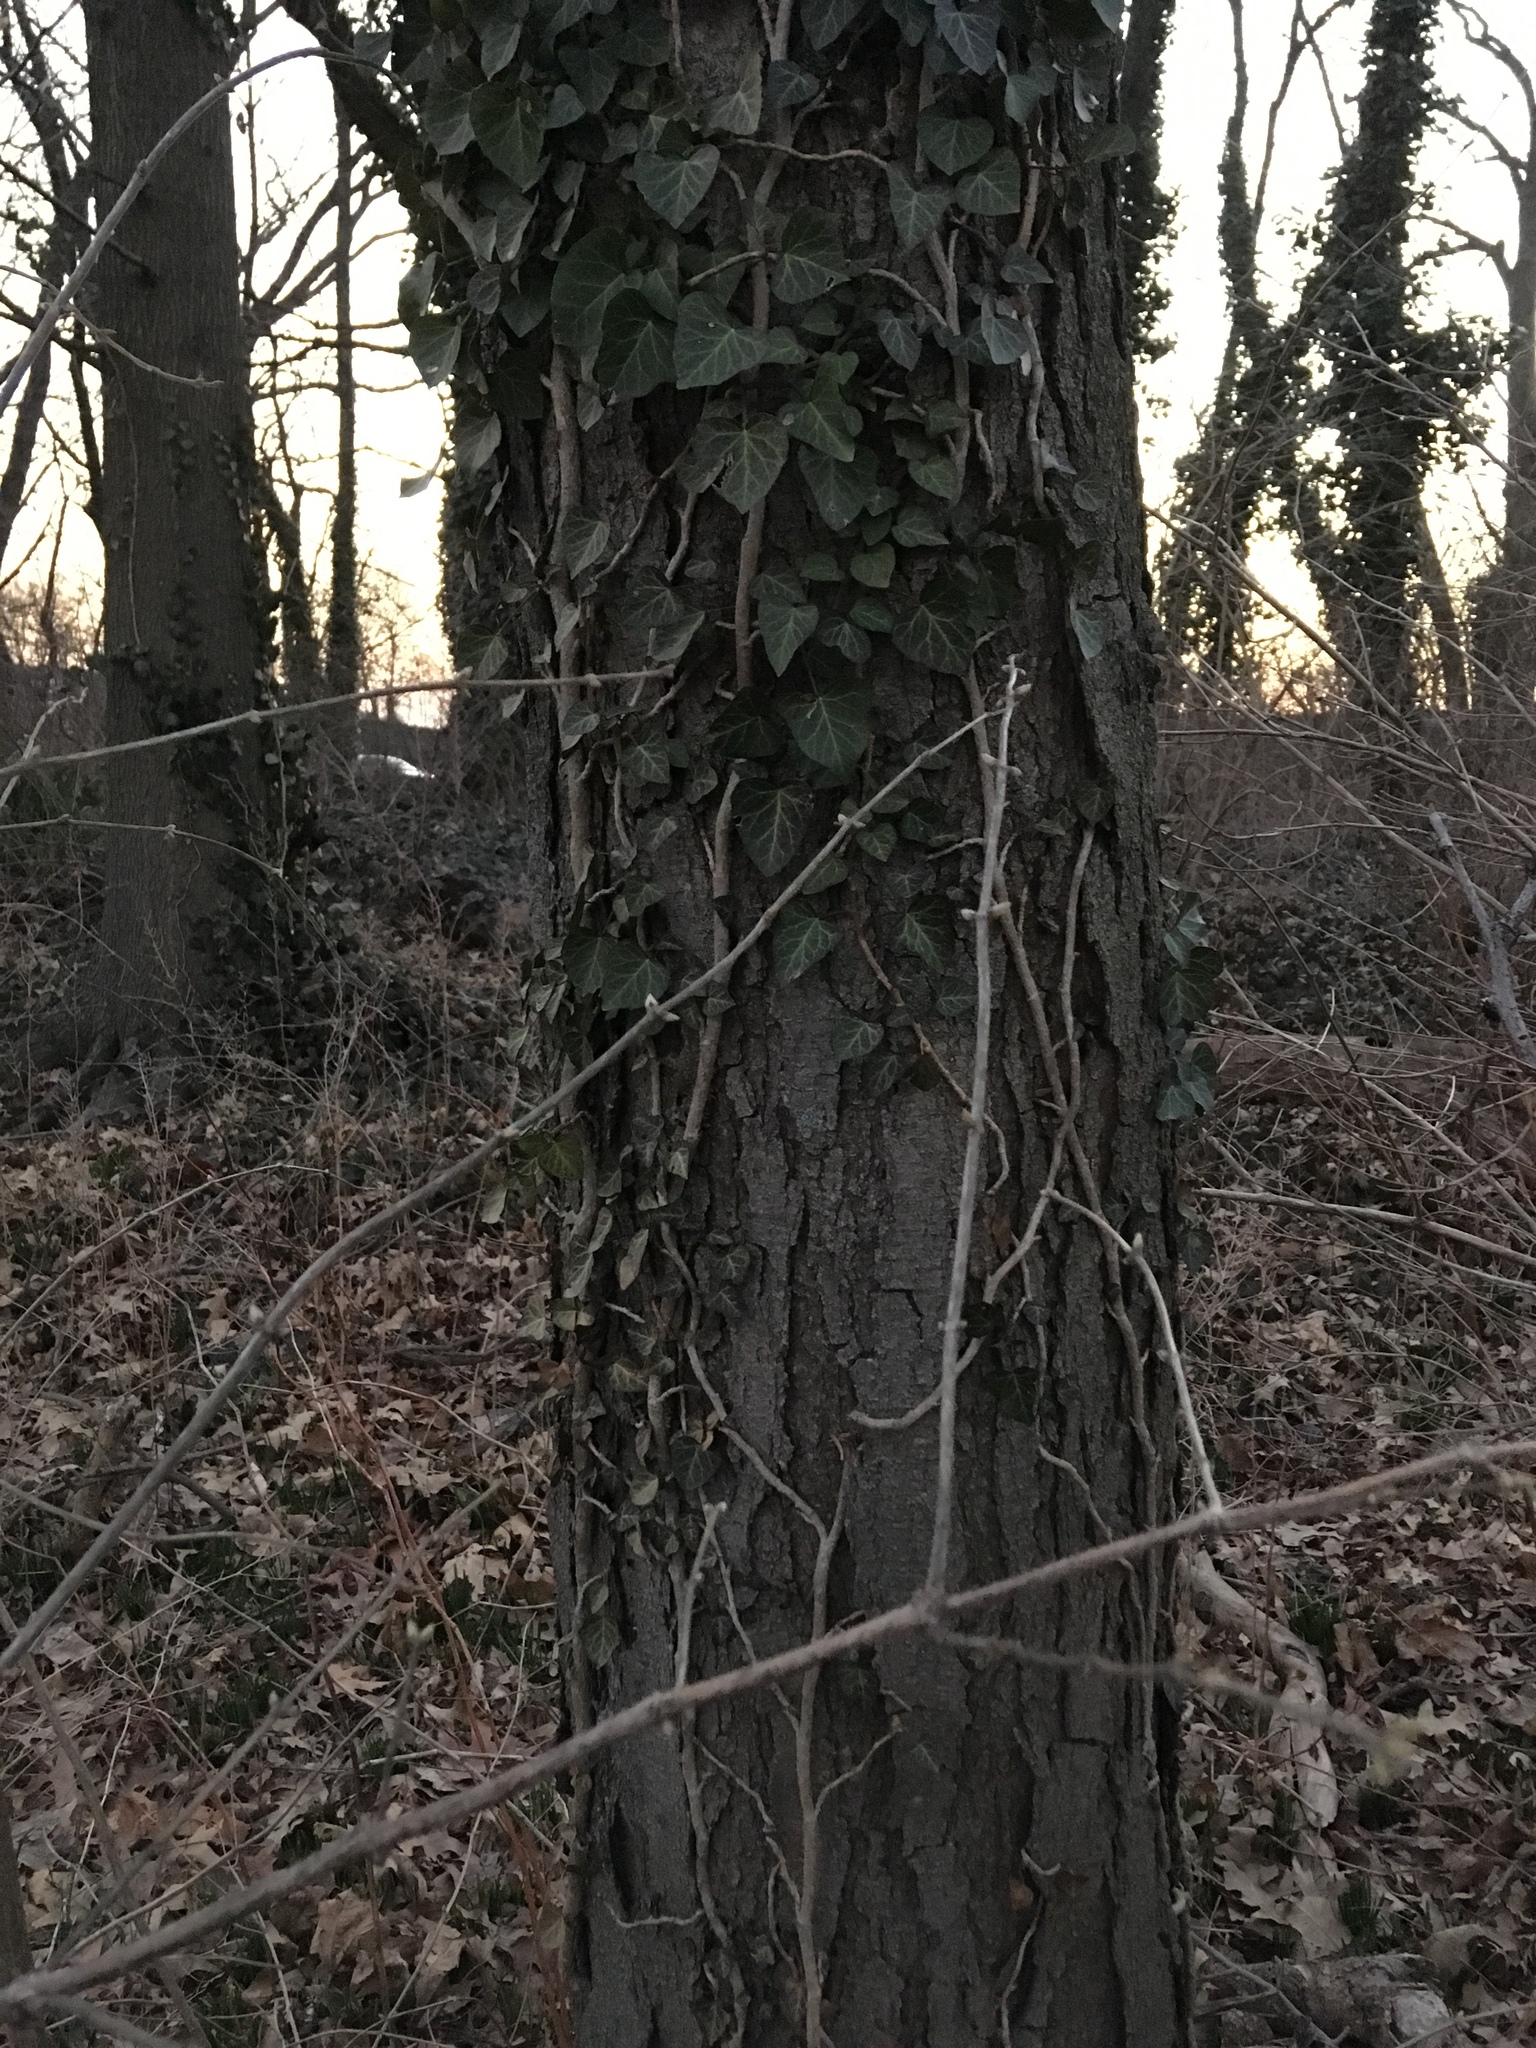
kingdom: Plantae
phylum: Tracheophyta
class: Magnoliopsida
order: Apiales
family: Araliaceae
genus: Hedera
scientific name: Hedera helix
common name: Ivy
